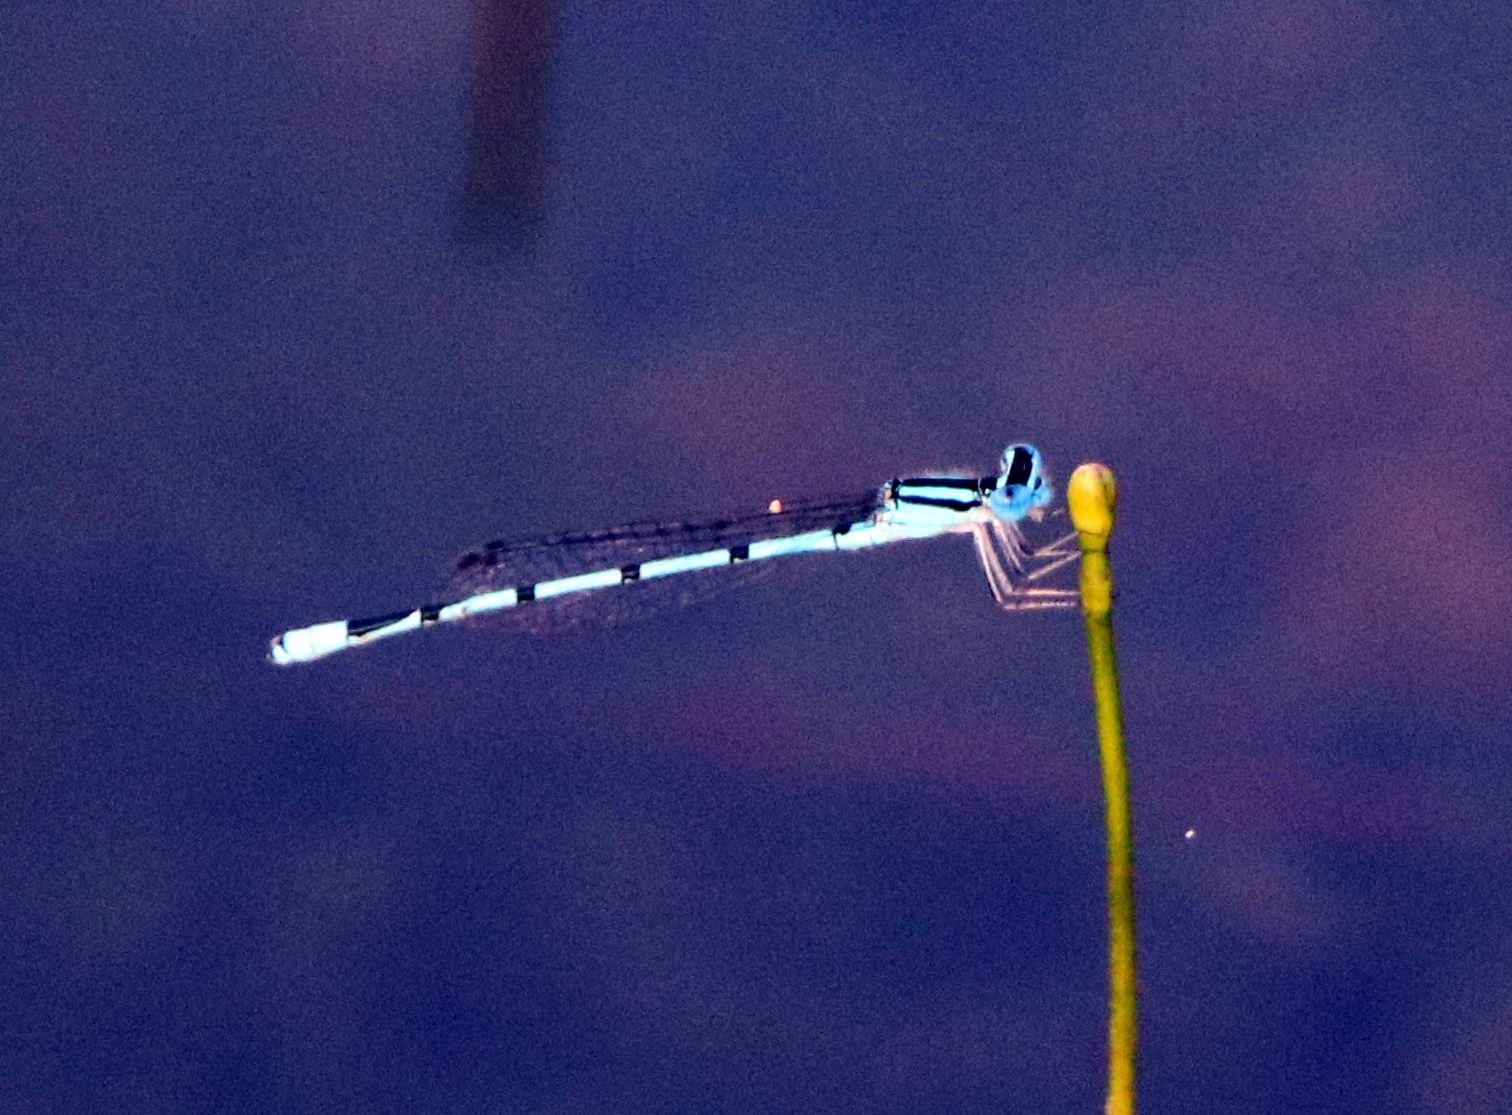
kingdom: Animalia
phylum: Arthropoda
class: Insecta
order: Odonata
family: Coenagrionidae
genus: Enallagma
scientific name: Enallagma doubledayi
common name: Atlantic bluet
